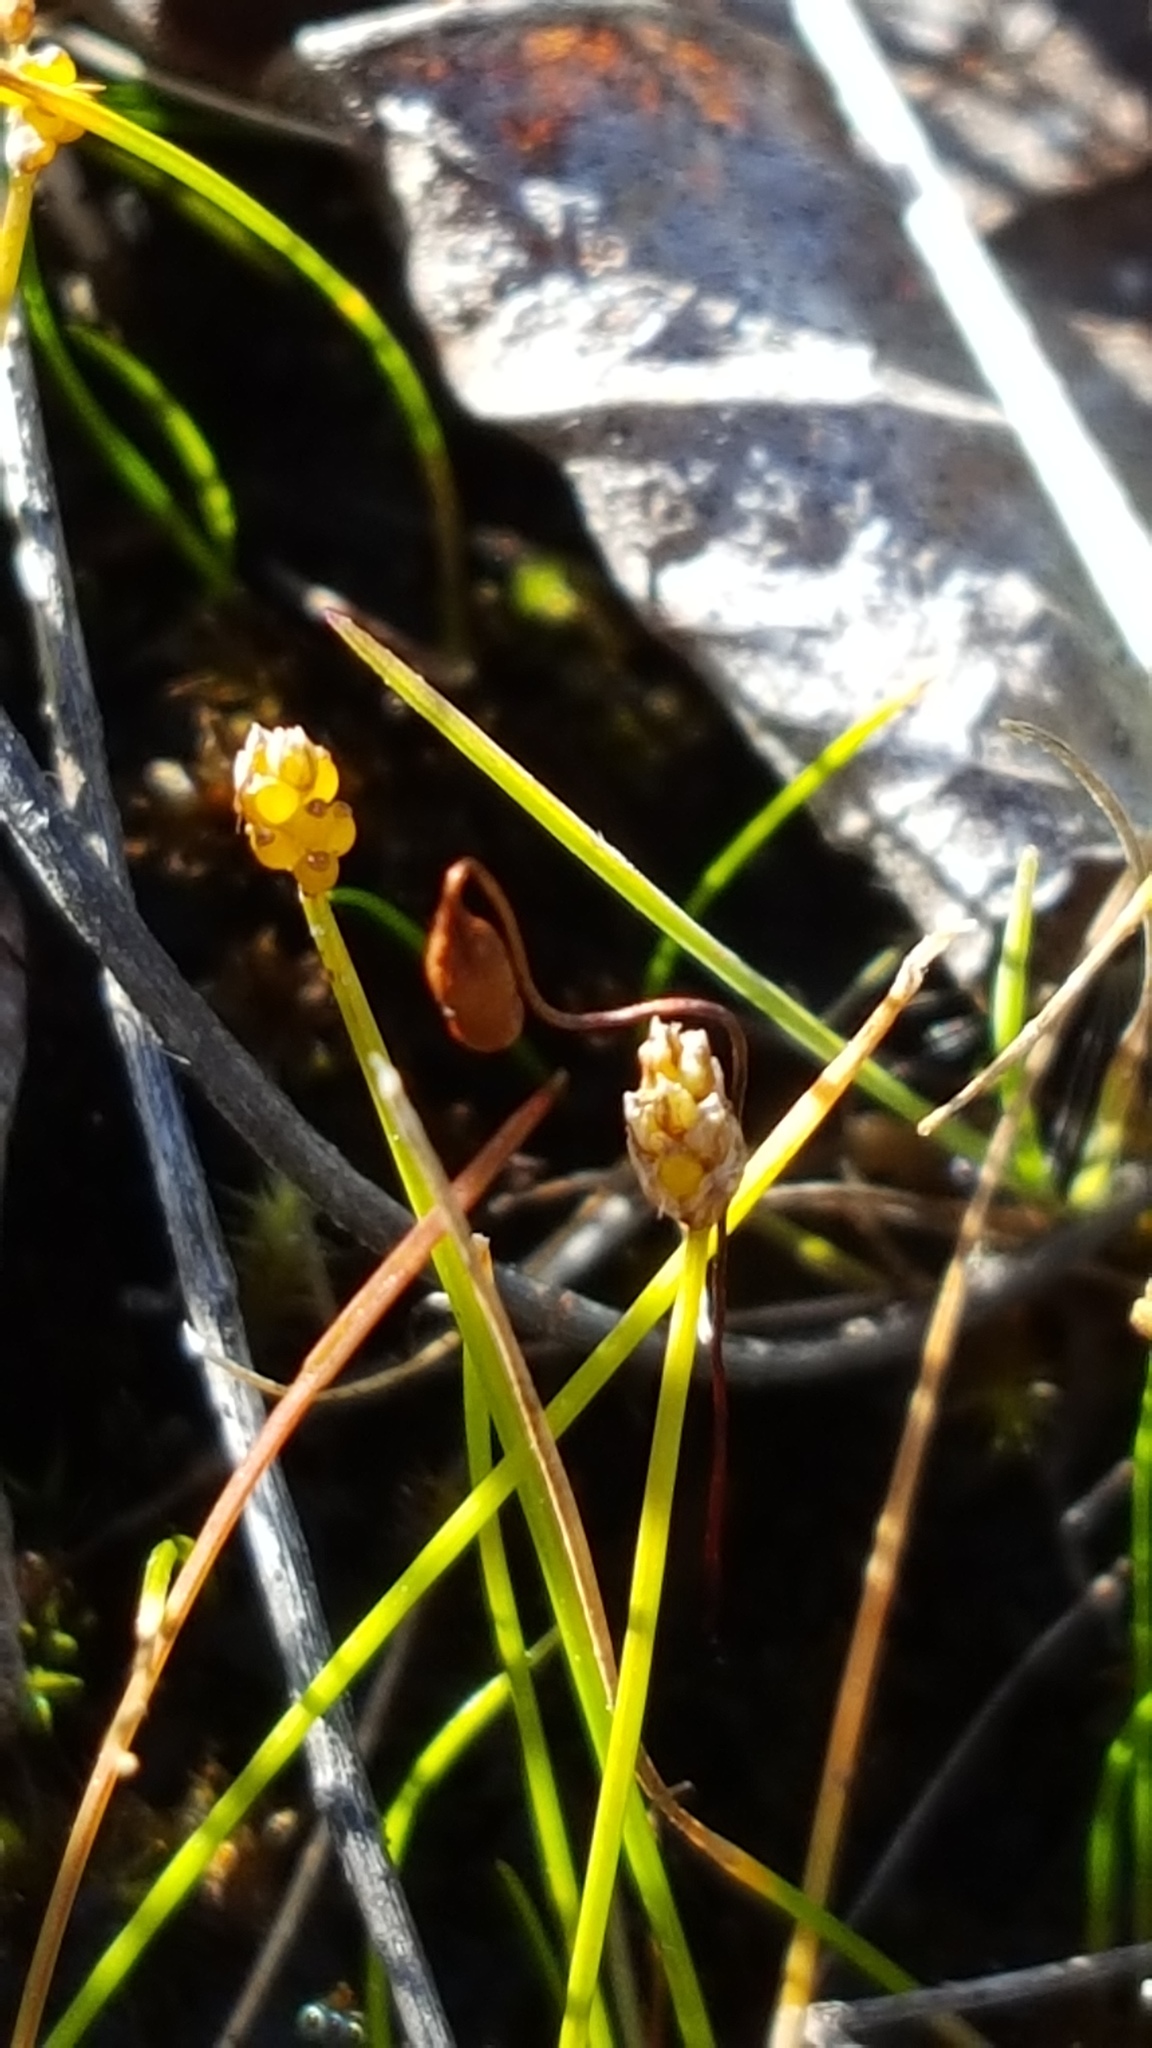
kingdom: Plantae
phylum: Tracheophyta
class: Liliopsida
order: Poales
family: Cyperaceae
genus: Eleocharis
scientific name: Eleocharis nitida
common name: Neat spikerush
